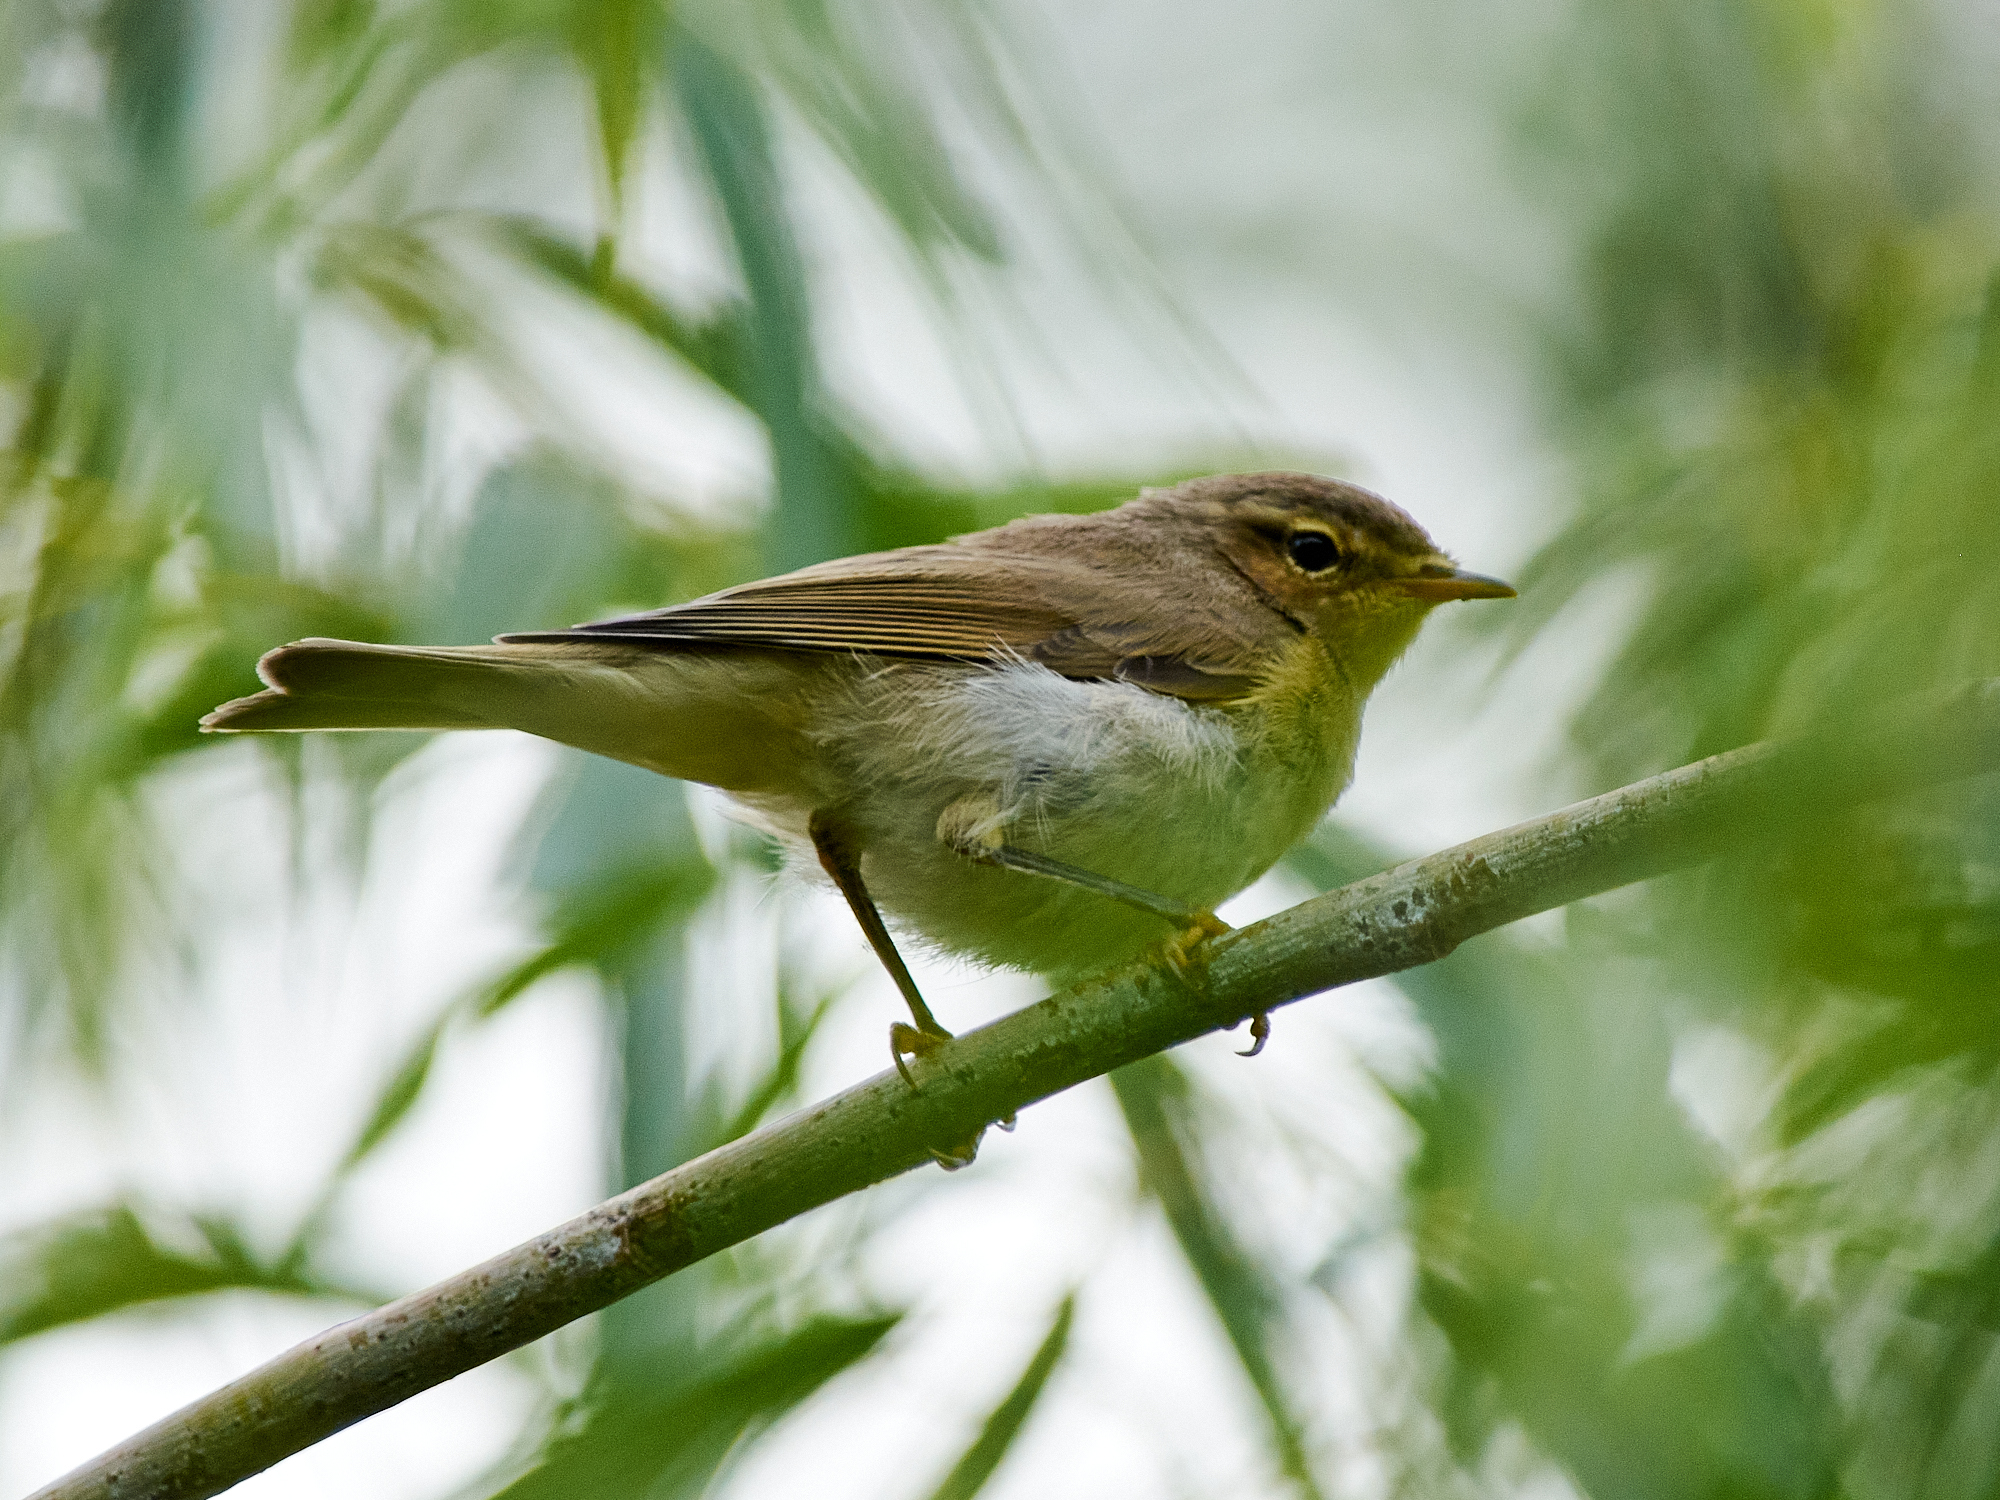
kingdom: Animalia
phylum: Chordata
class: Aves
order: Passeriformes
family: Phylloscopidae
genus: Phylloscopus
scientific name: Phylloscopus trochilus
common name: Willow warbler
